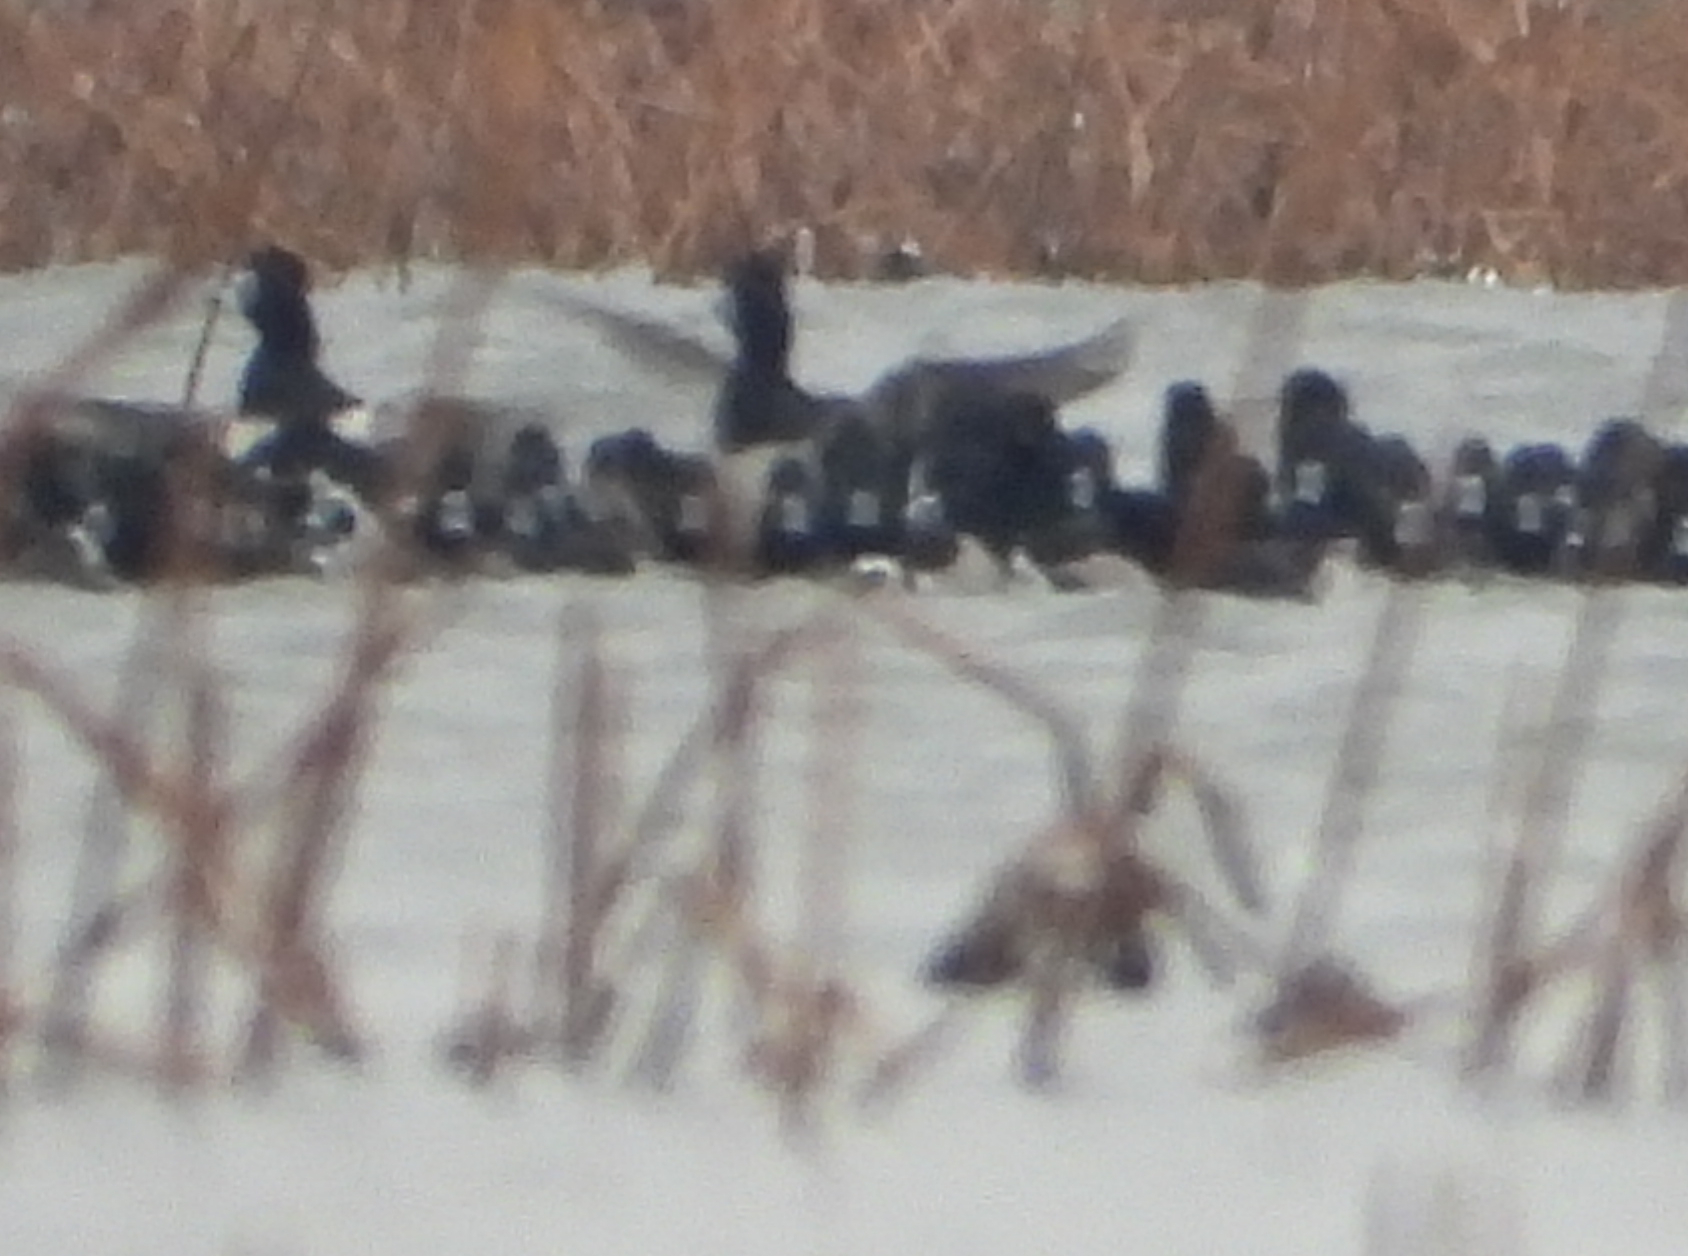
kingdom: Animalia
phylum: Chordata
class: Aves
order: Anseriformes
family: Anatidae
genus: Aythya
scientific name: Aythya collaris
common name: Ring-necked duck
